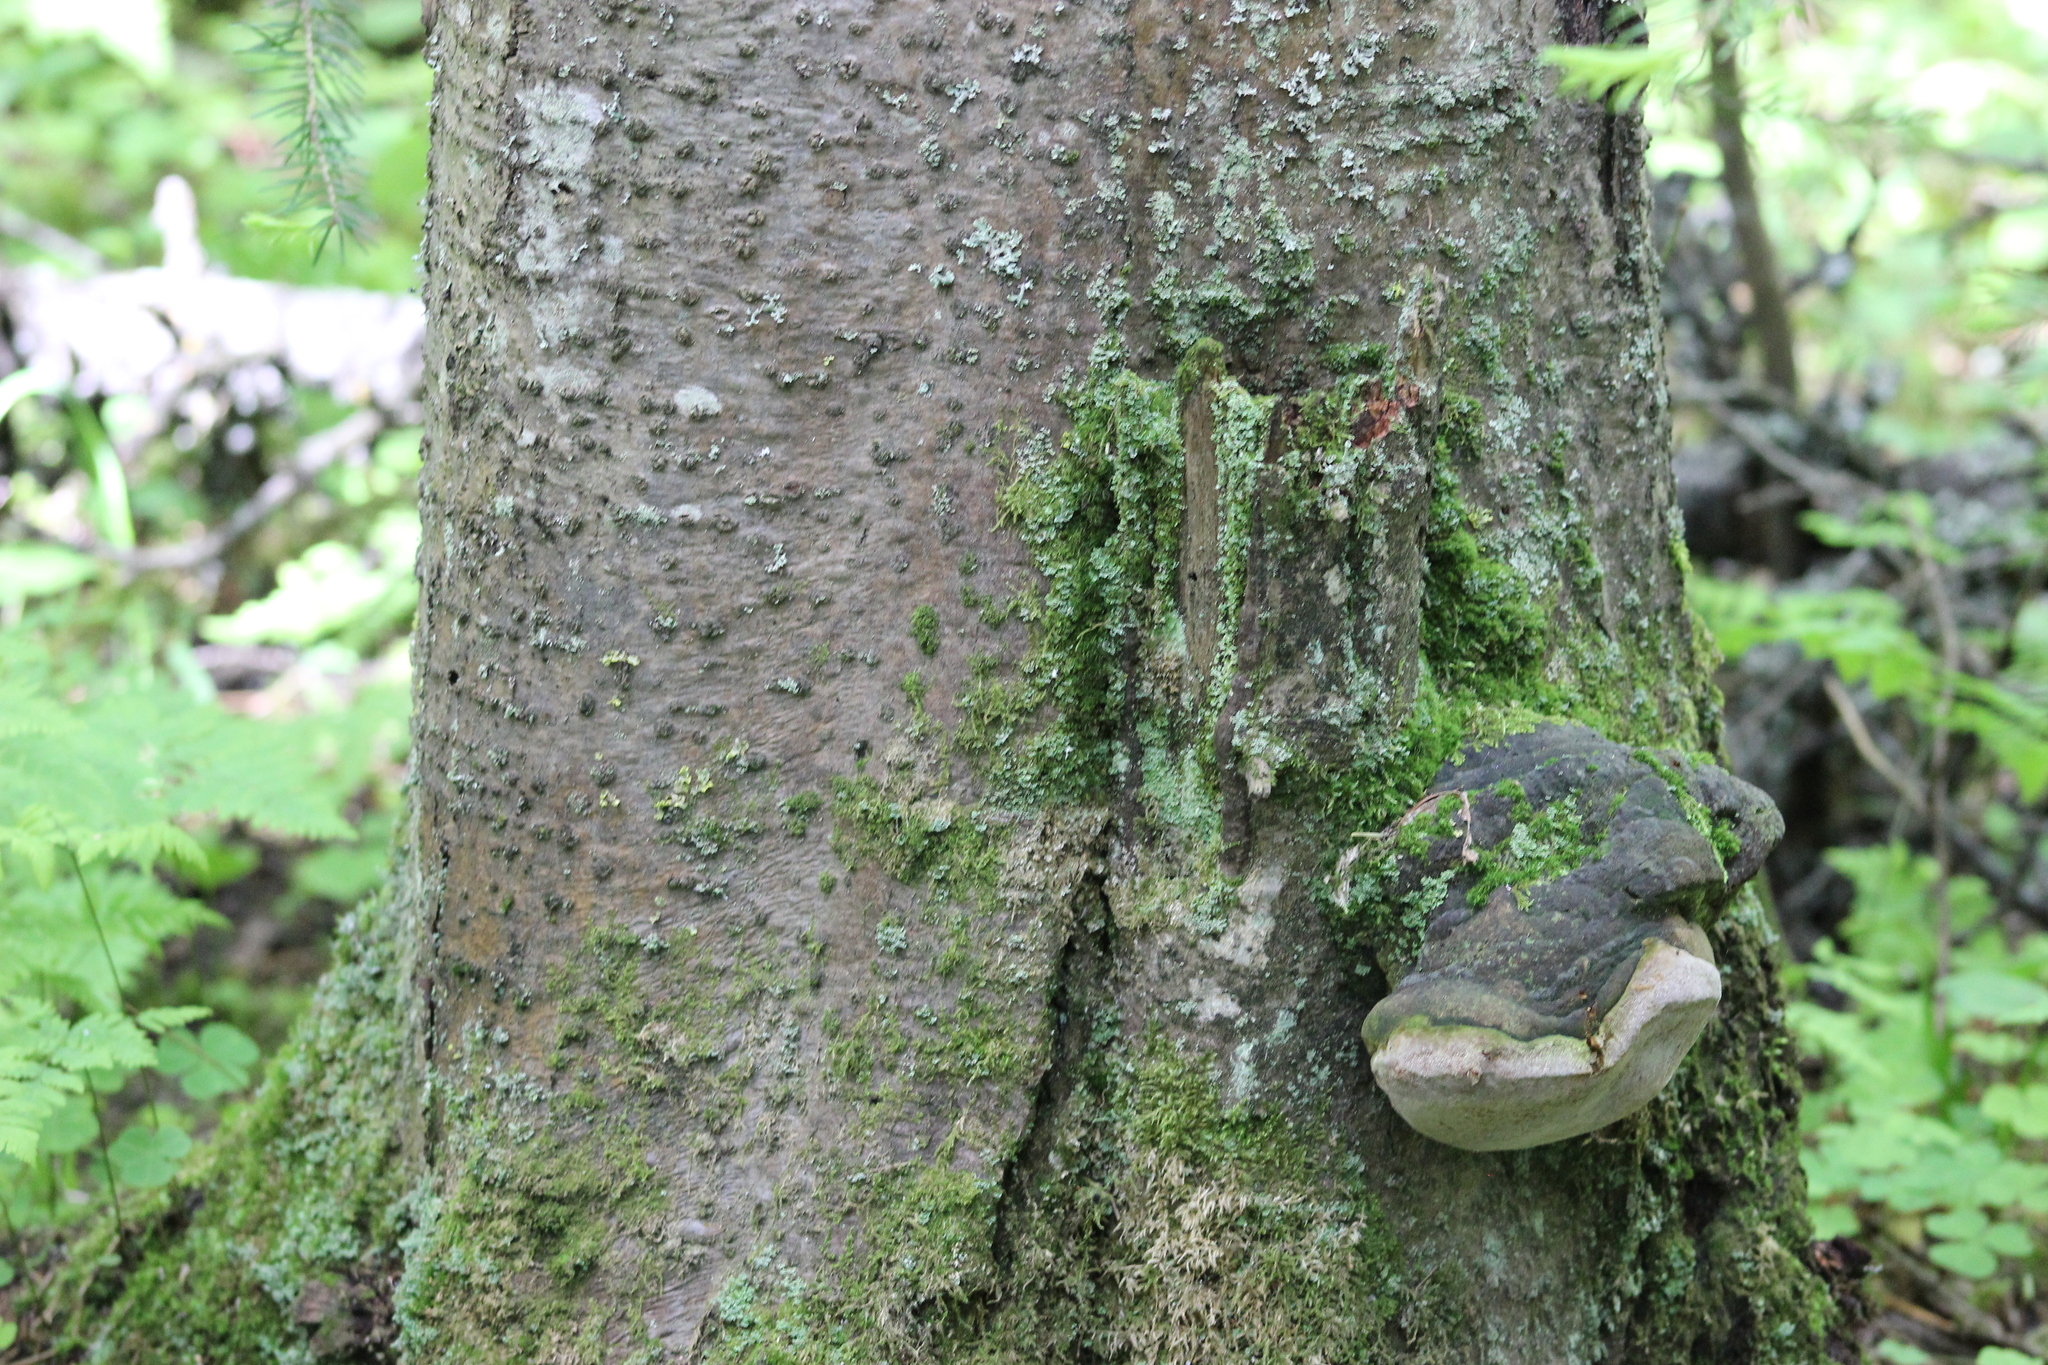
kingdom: Fungi
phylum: Basidiomycota
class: Agaricomycetes
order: Hymenochaetales
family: Hymenochaetaceae
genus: Phellinus
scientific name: Phellinus hartigii
